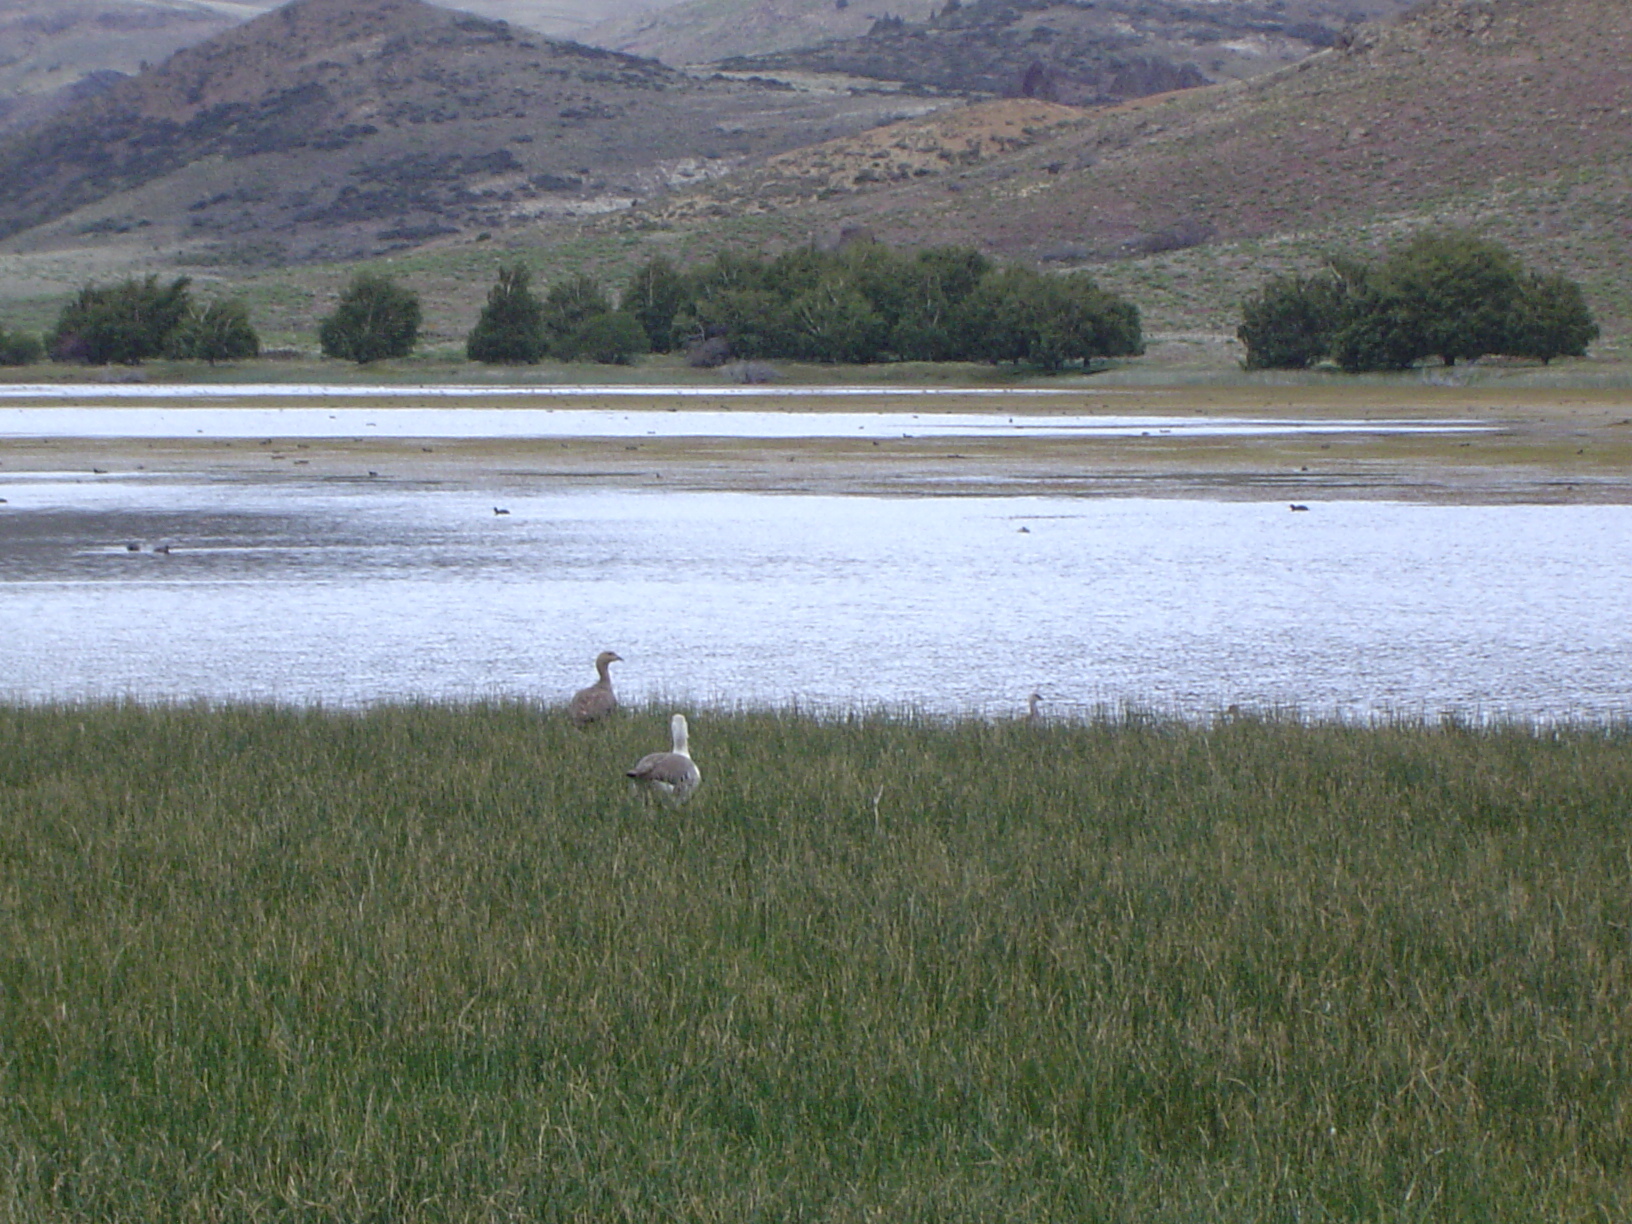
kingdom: Animalia
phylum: Chordata
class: Aves
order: Anseriformes
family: Anatidae
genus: Chloephaga
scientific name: Chloephaga picta
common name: Upland goose
